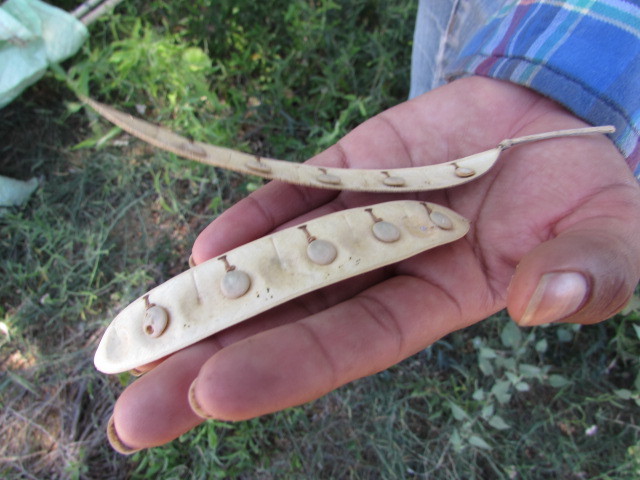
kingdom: Plantae
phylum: Tracheophyta
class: Magnoliopsida
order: Fabales
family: Fabaceae
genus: Albizia
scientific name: Albizia sinaloensis
